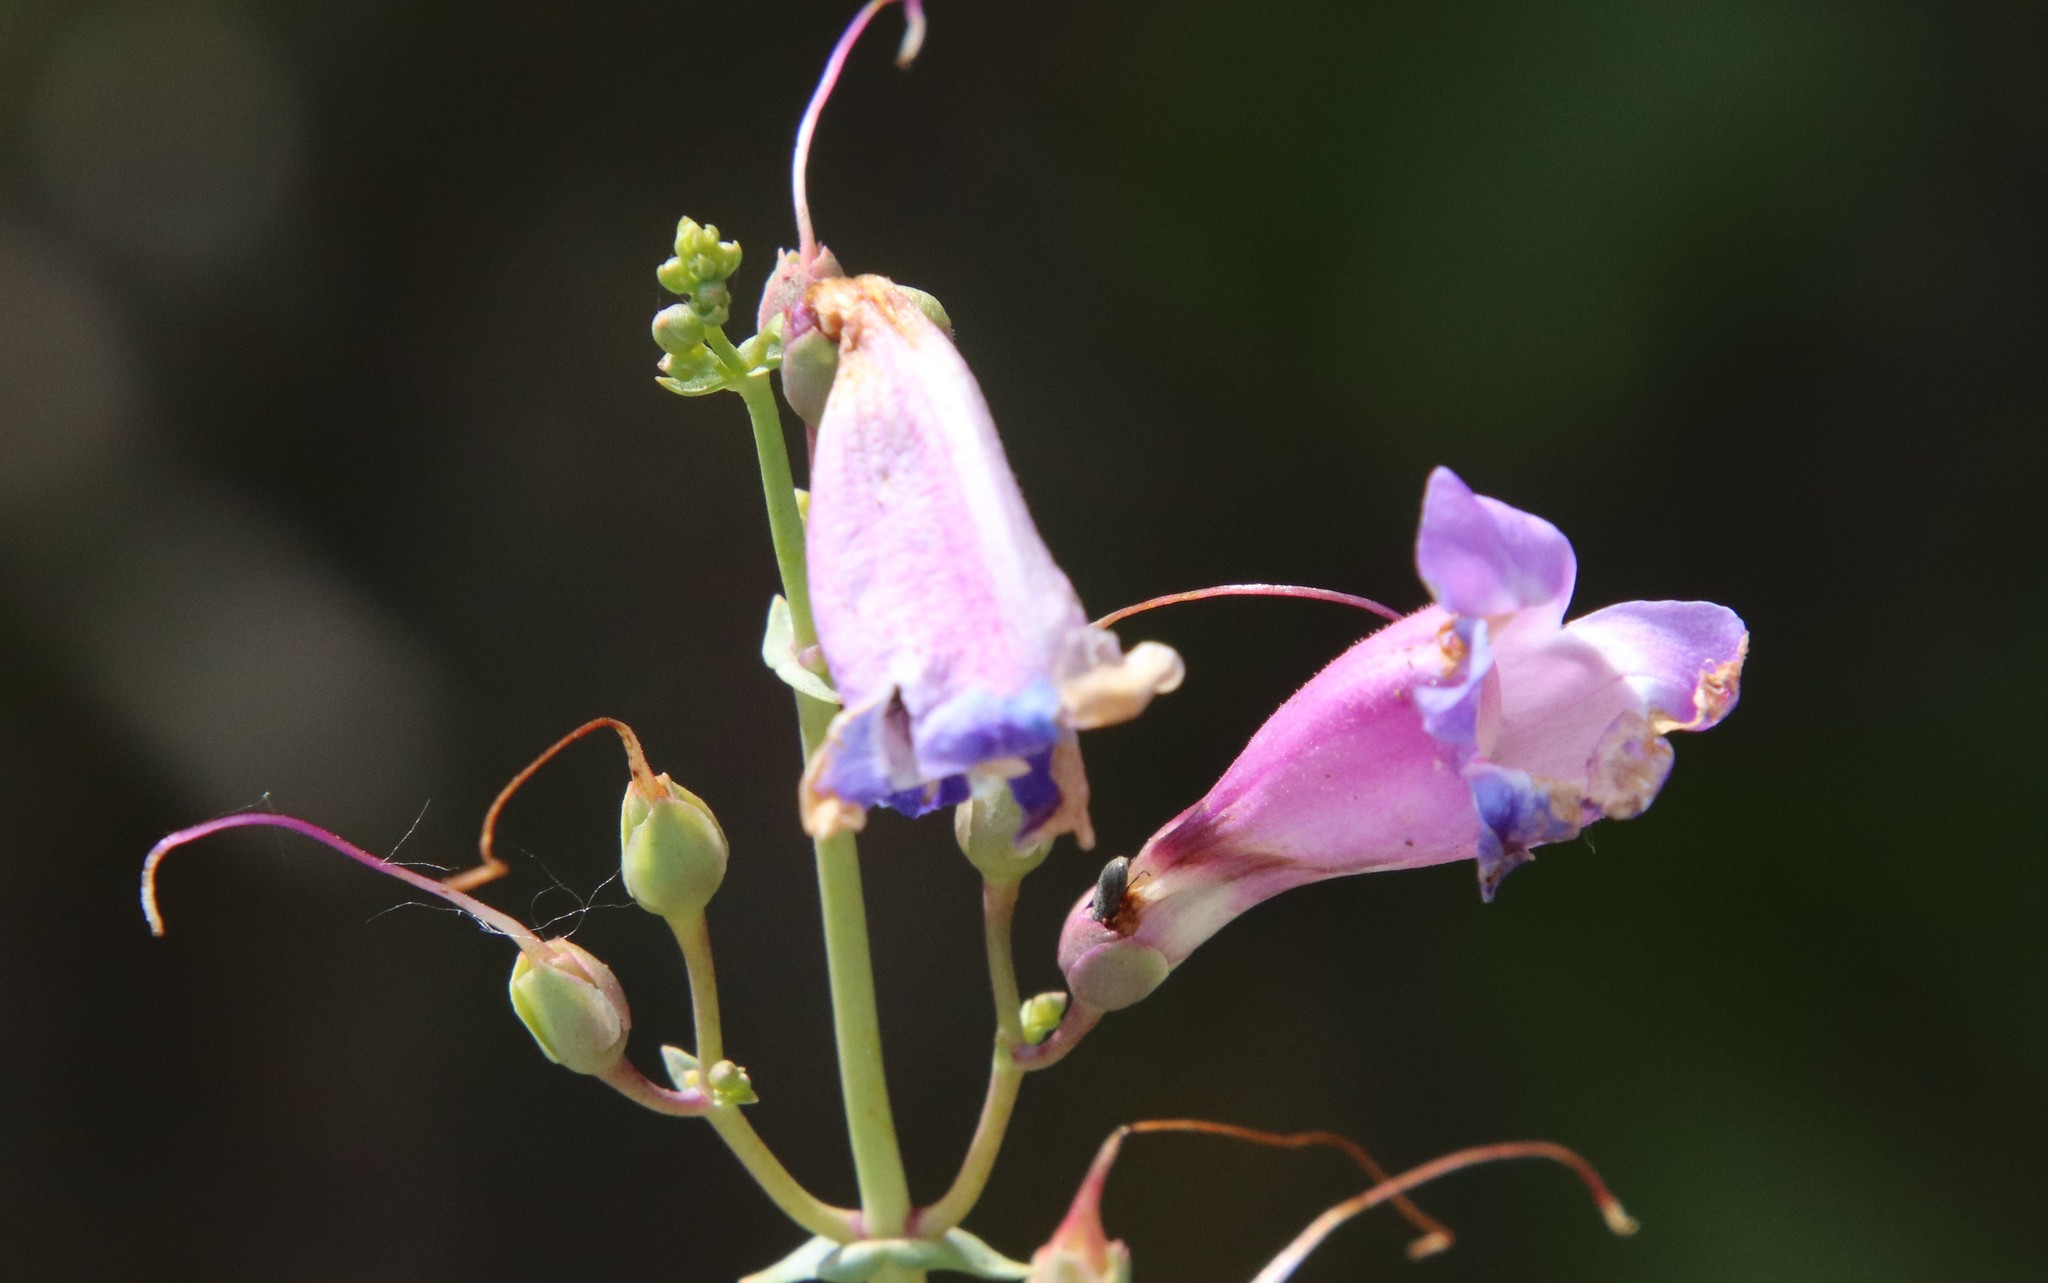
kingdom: Plantae
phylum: Tracheophyta
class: Magnoliopsida
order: Lamiales
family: Plantaginaceae
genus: Penstemon
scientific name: Penstemon spectabilis
